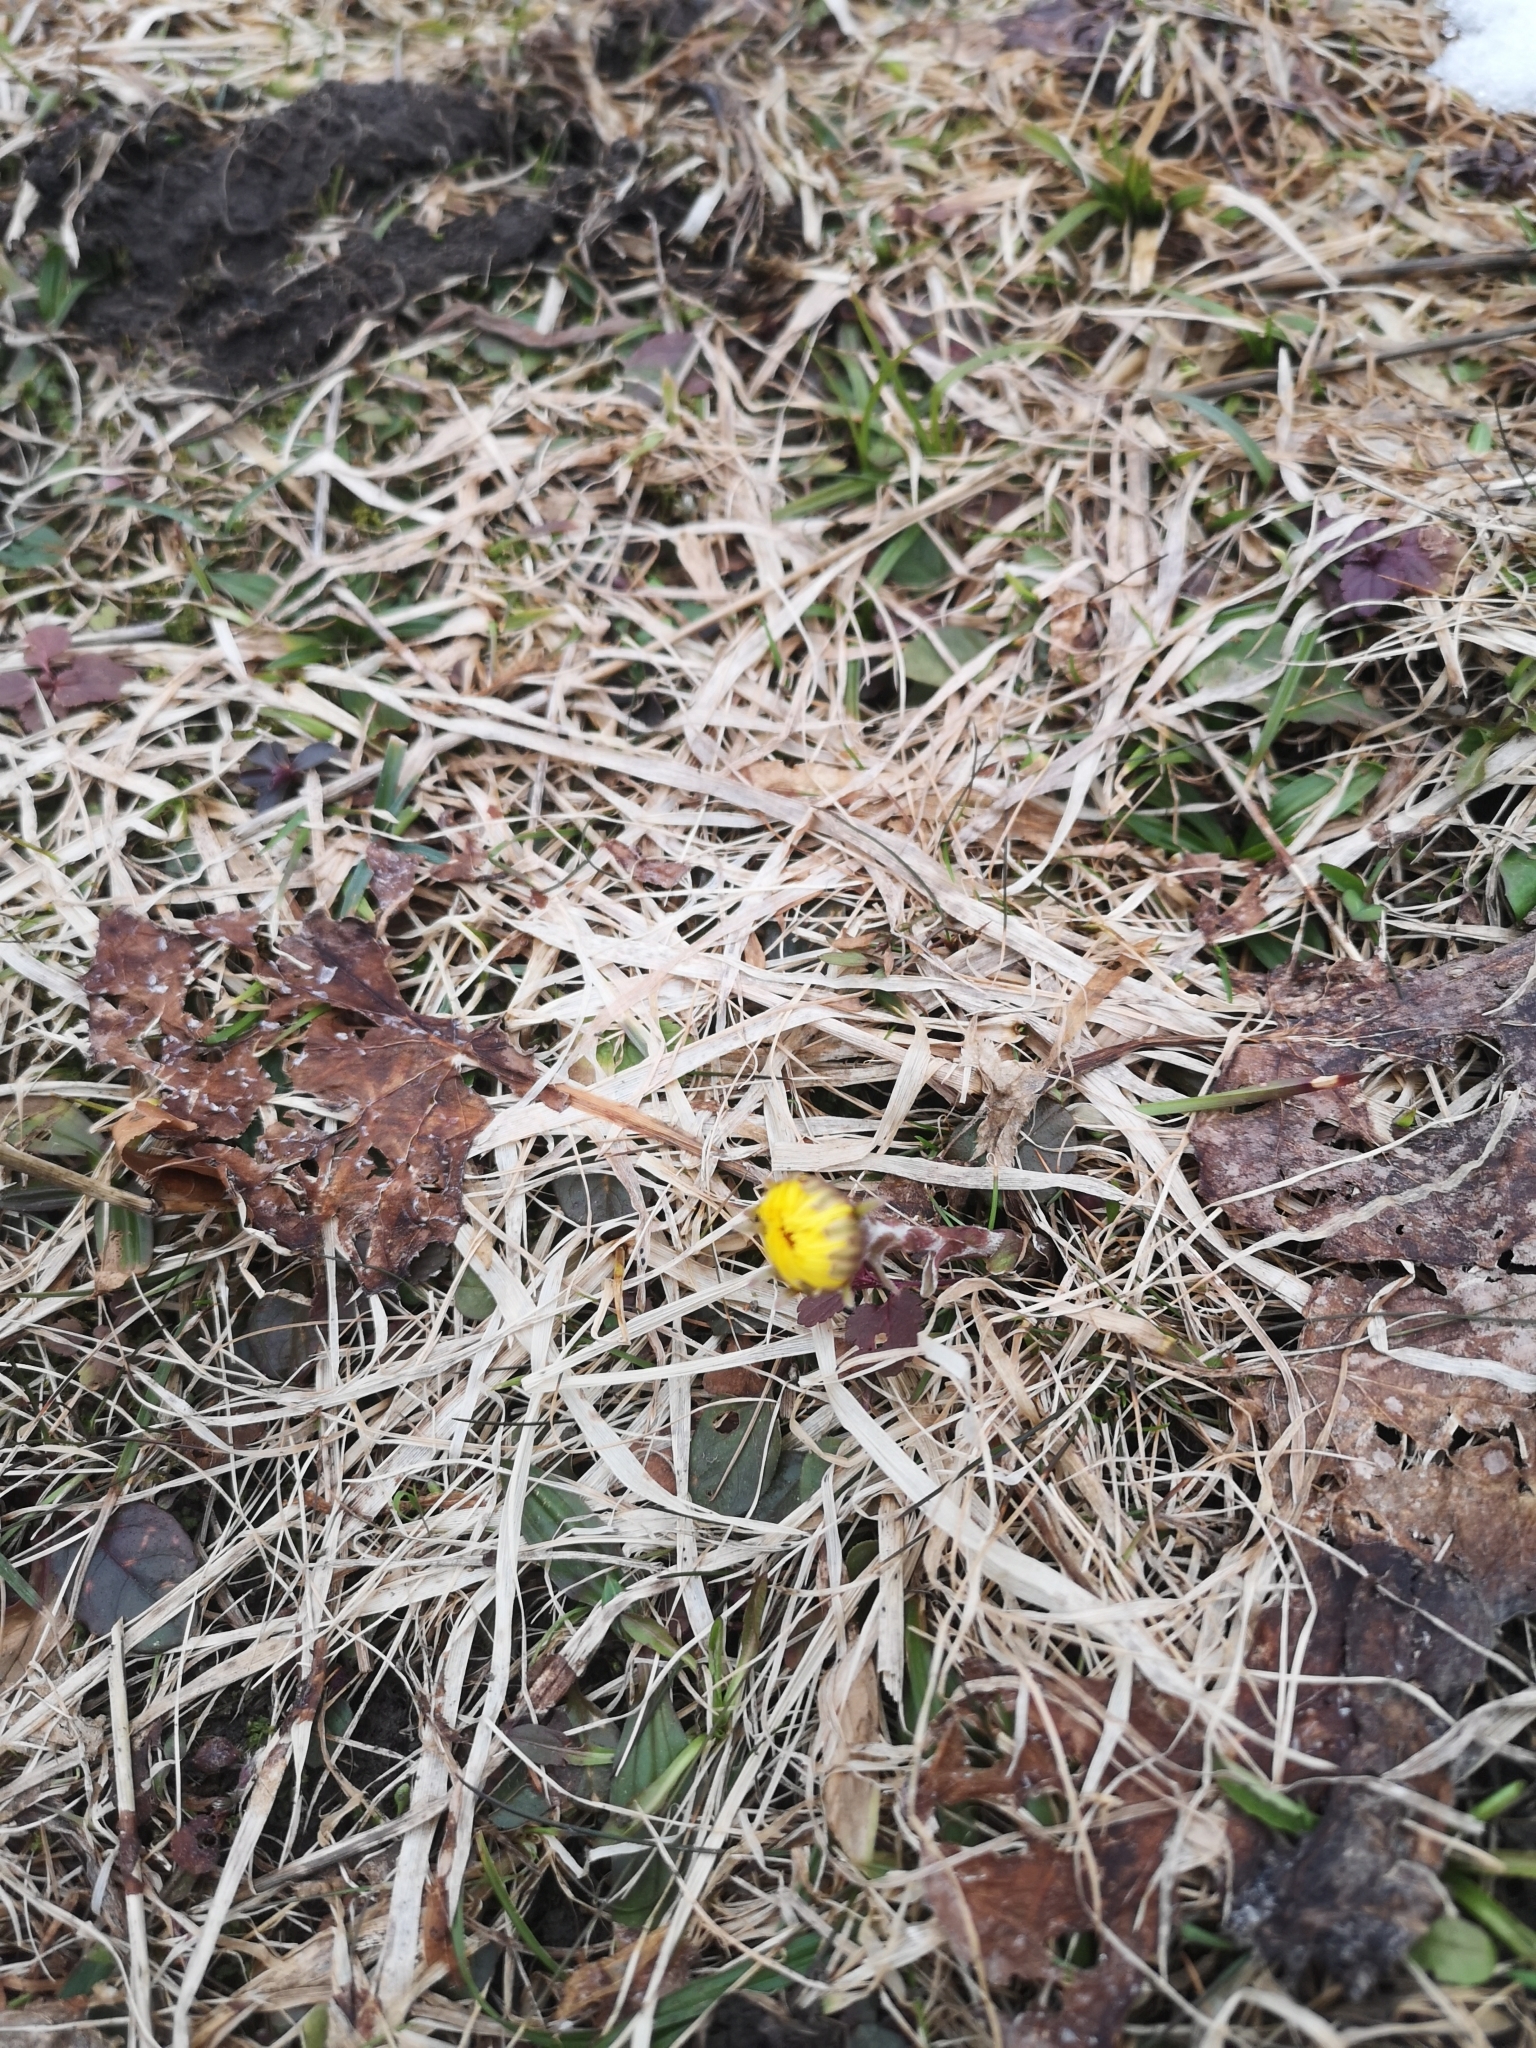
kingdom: Plantae
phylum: Tracheophyta
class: Magnoliopsida
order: Asterales
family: Asteraceae
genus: Tussilago
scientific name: Tussilago farfara
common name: Coltsfoot
